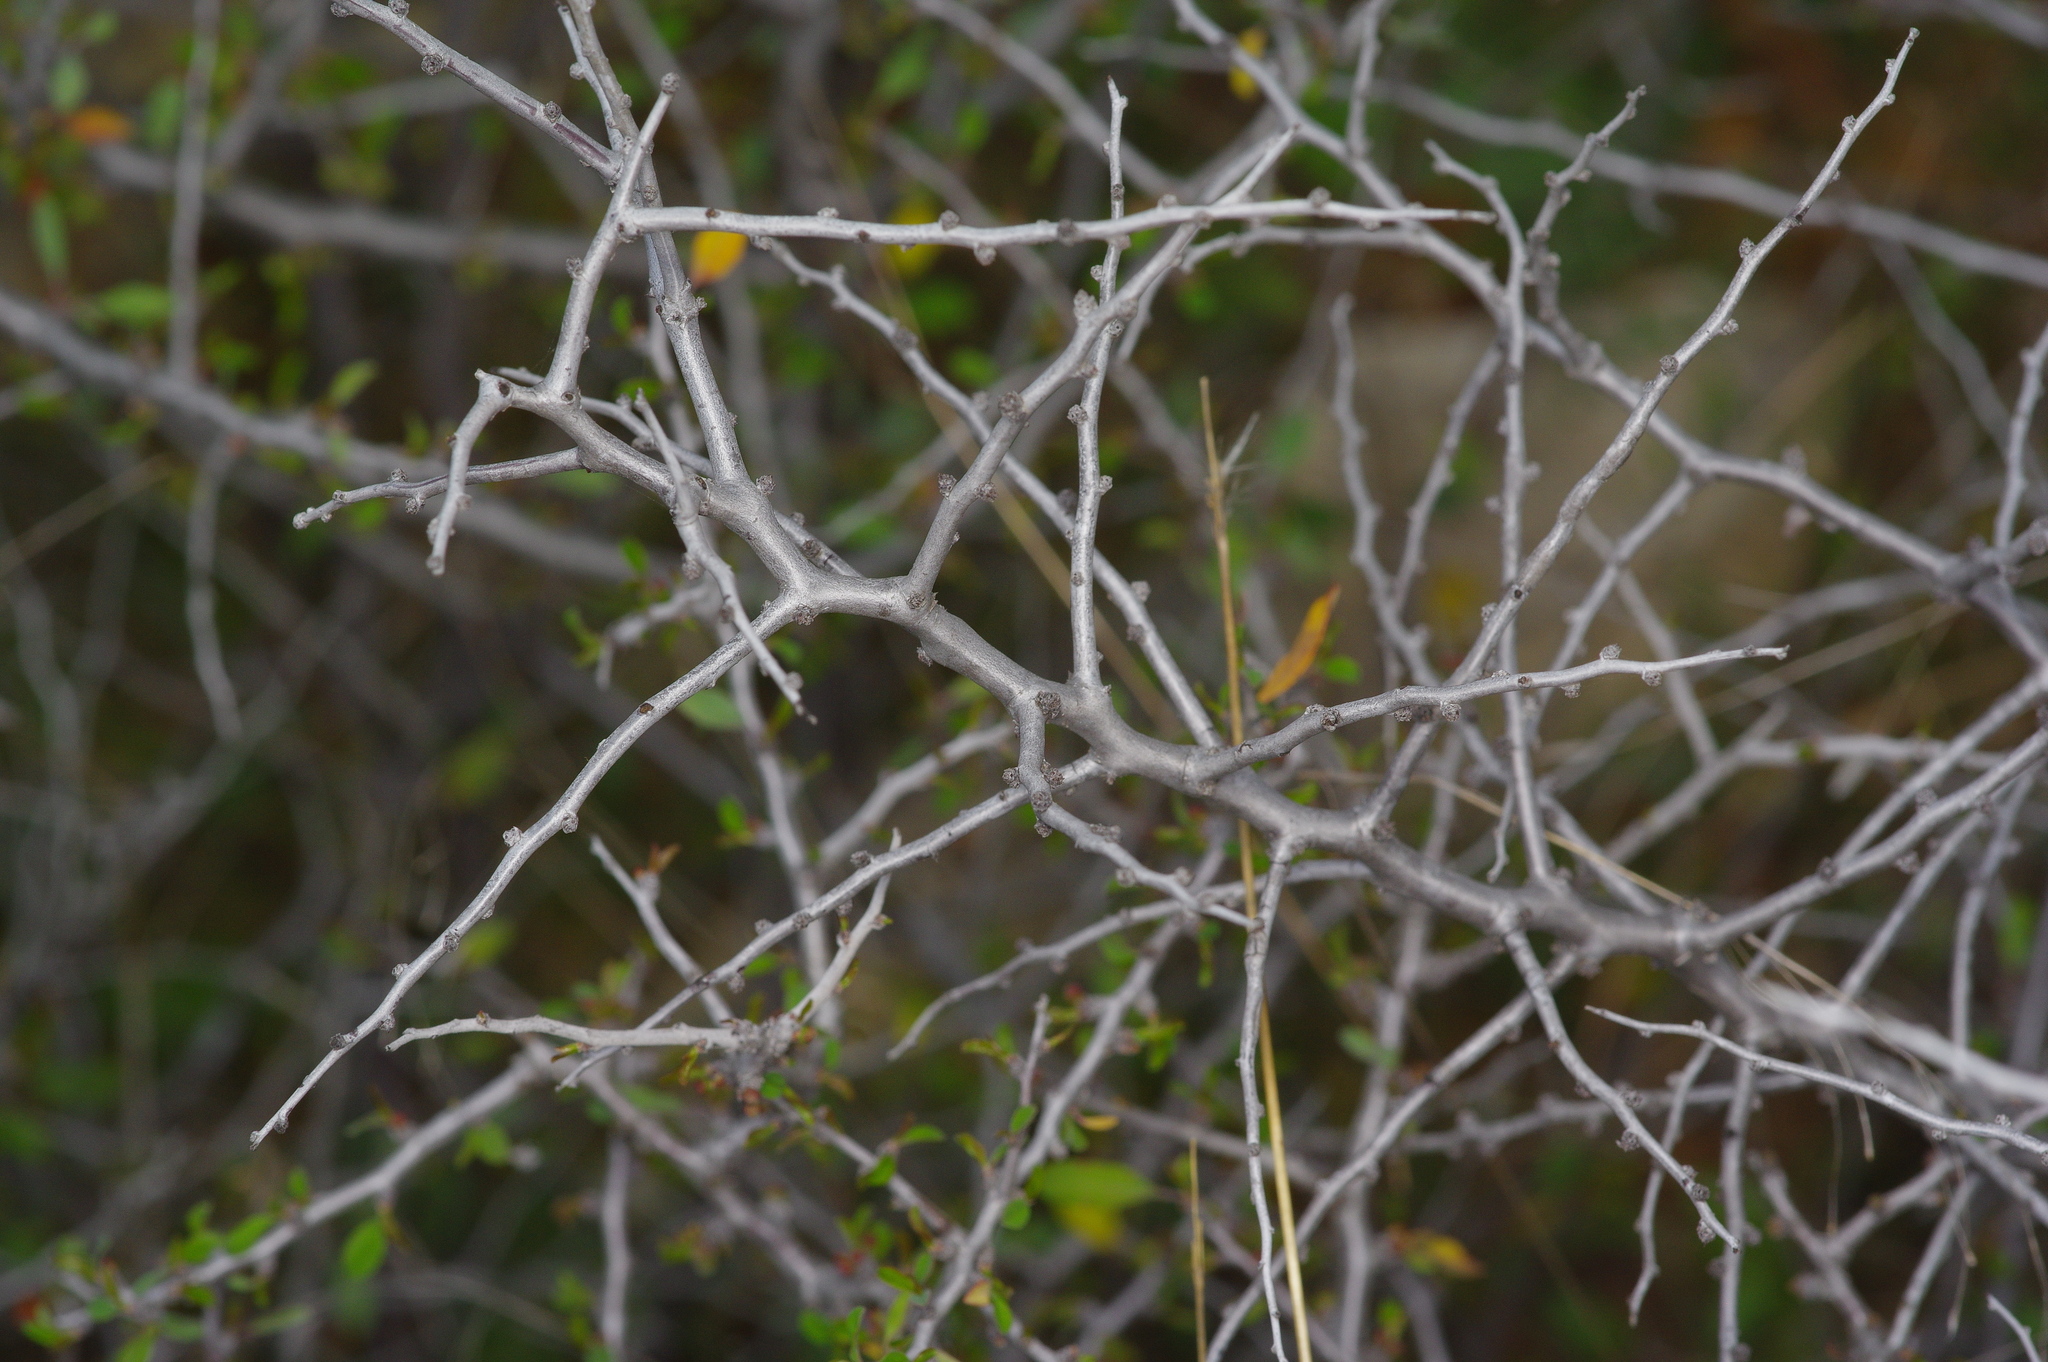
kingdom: Plantae
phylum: Tracheophyta
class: Magnoliopsida
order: Rosales
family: Rosaceae
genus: Prunus
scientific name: Prunus minutiflora
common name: Texas almond
